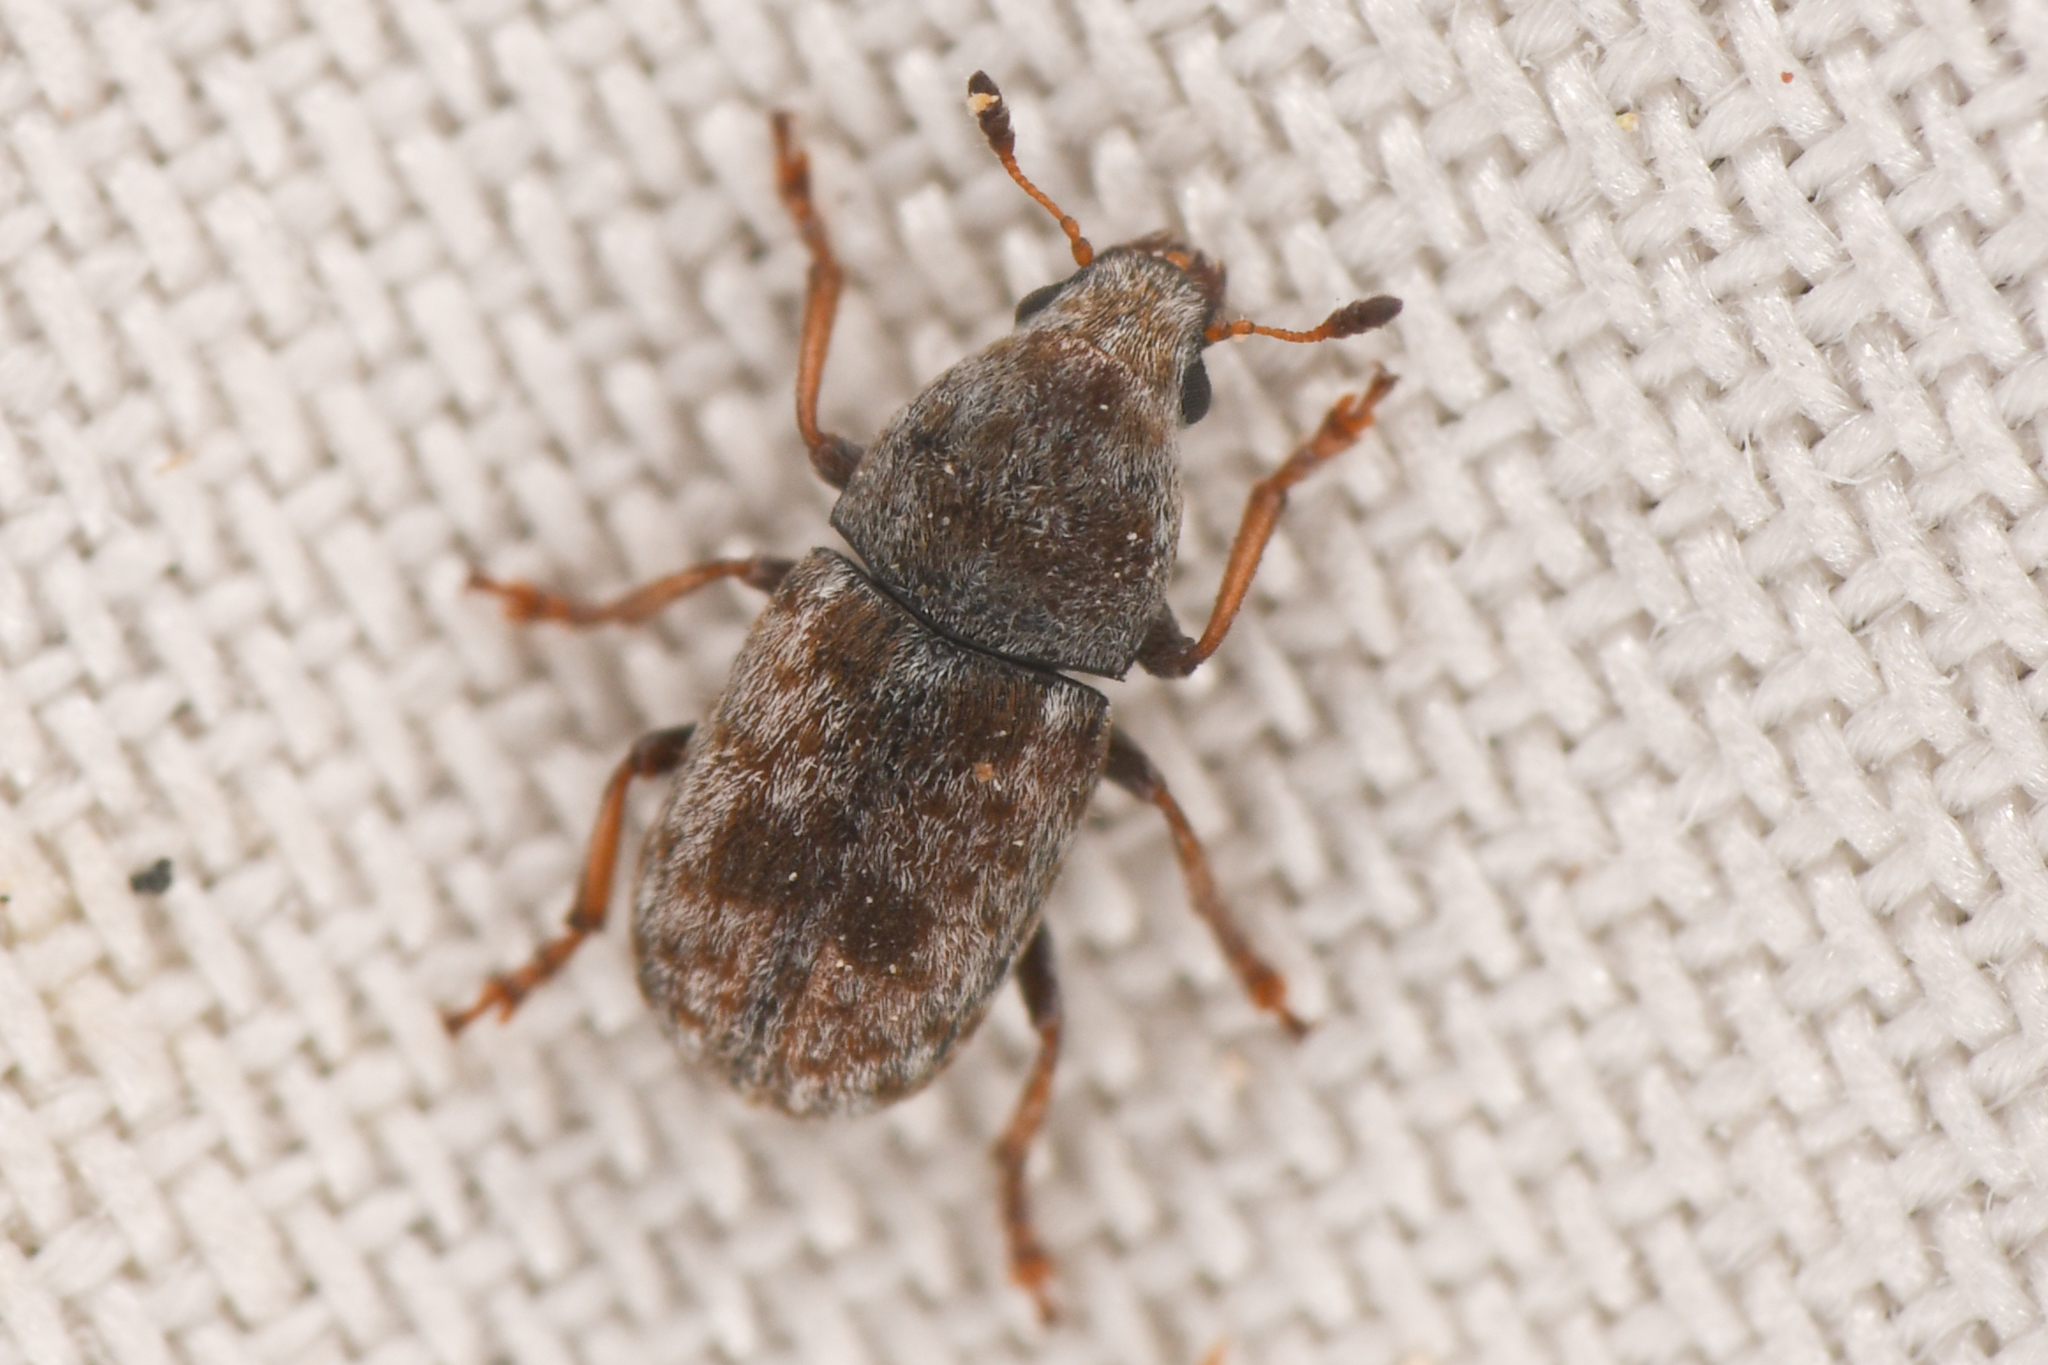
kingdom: Animalia
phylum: Arthropoda
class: Insecta
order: Coleoptera
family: Anthribidae
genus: Trigonorhinus
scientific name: Trigonorhinus sticticus
